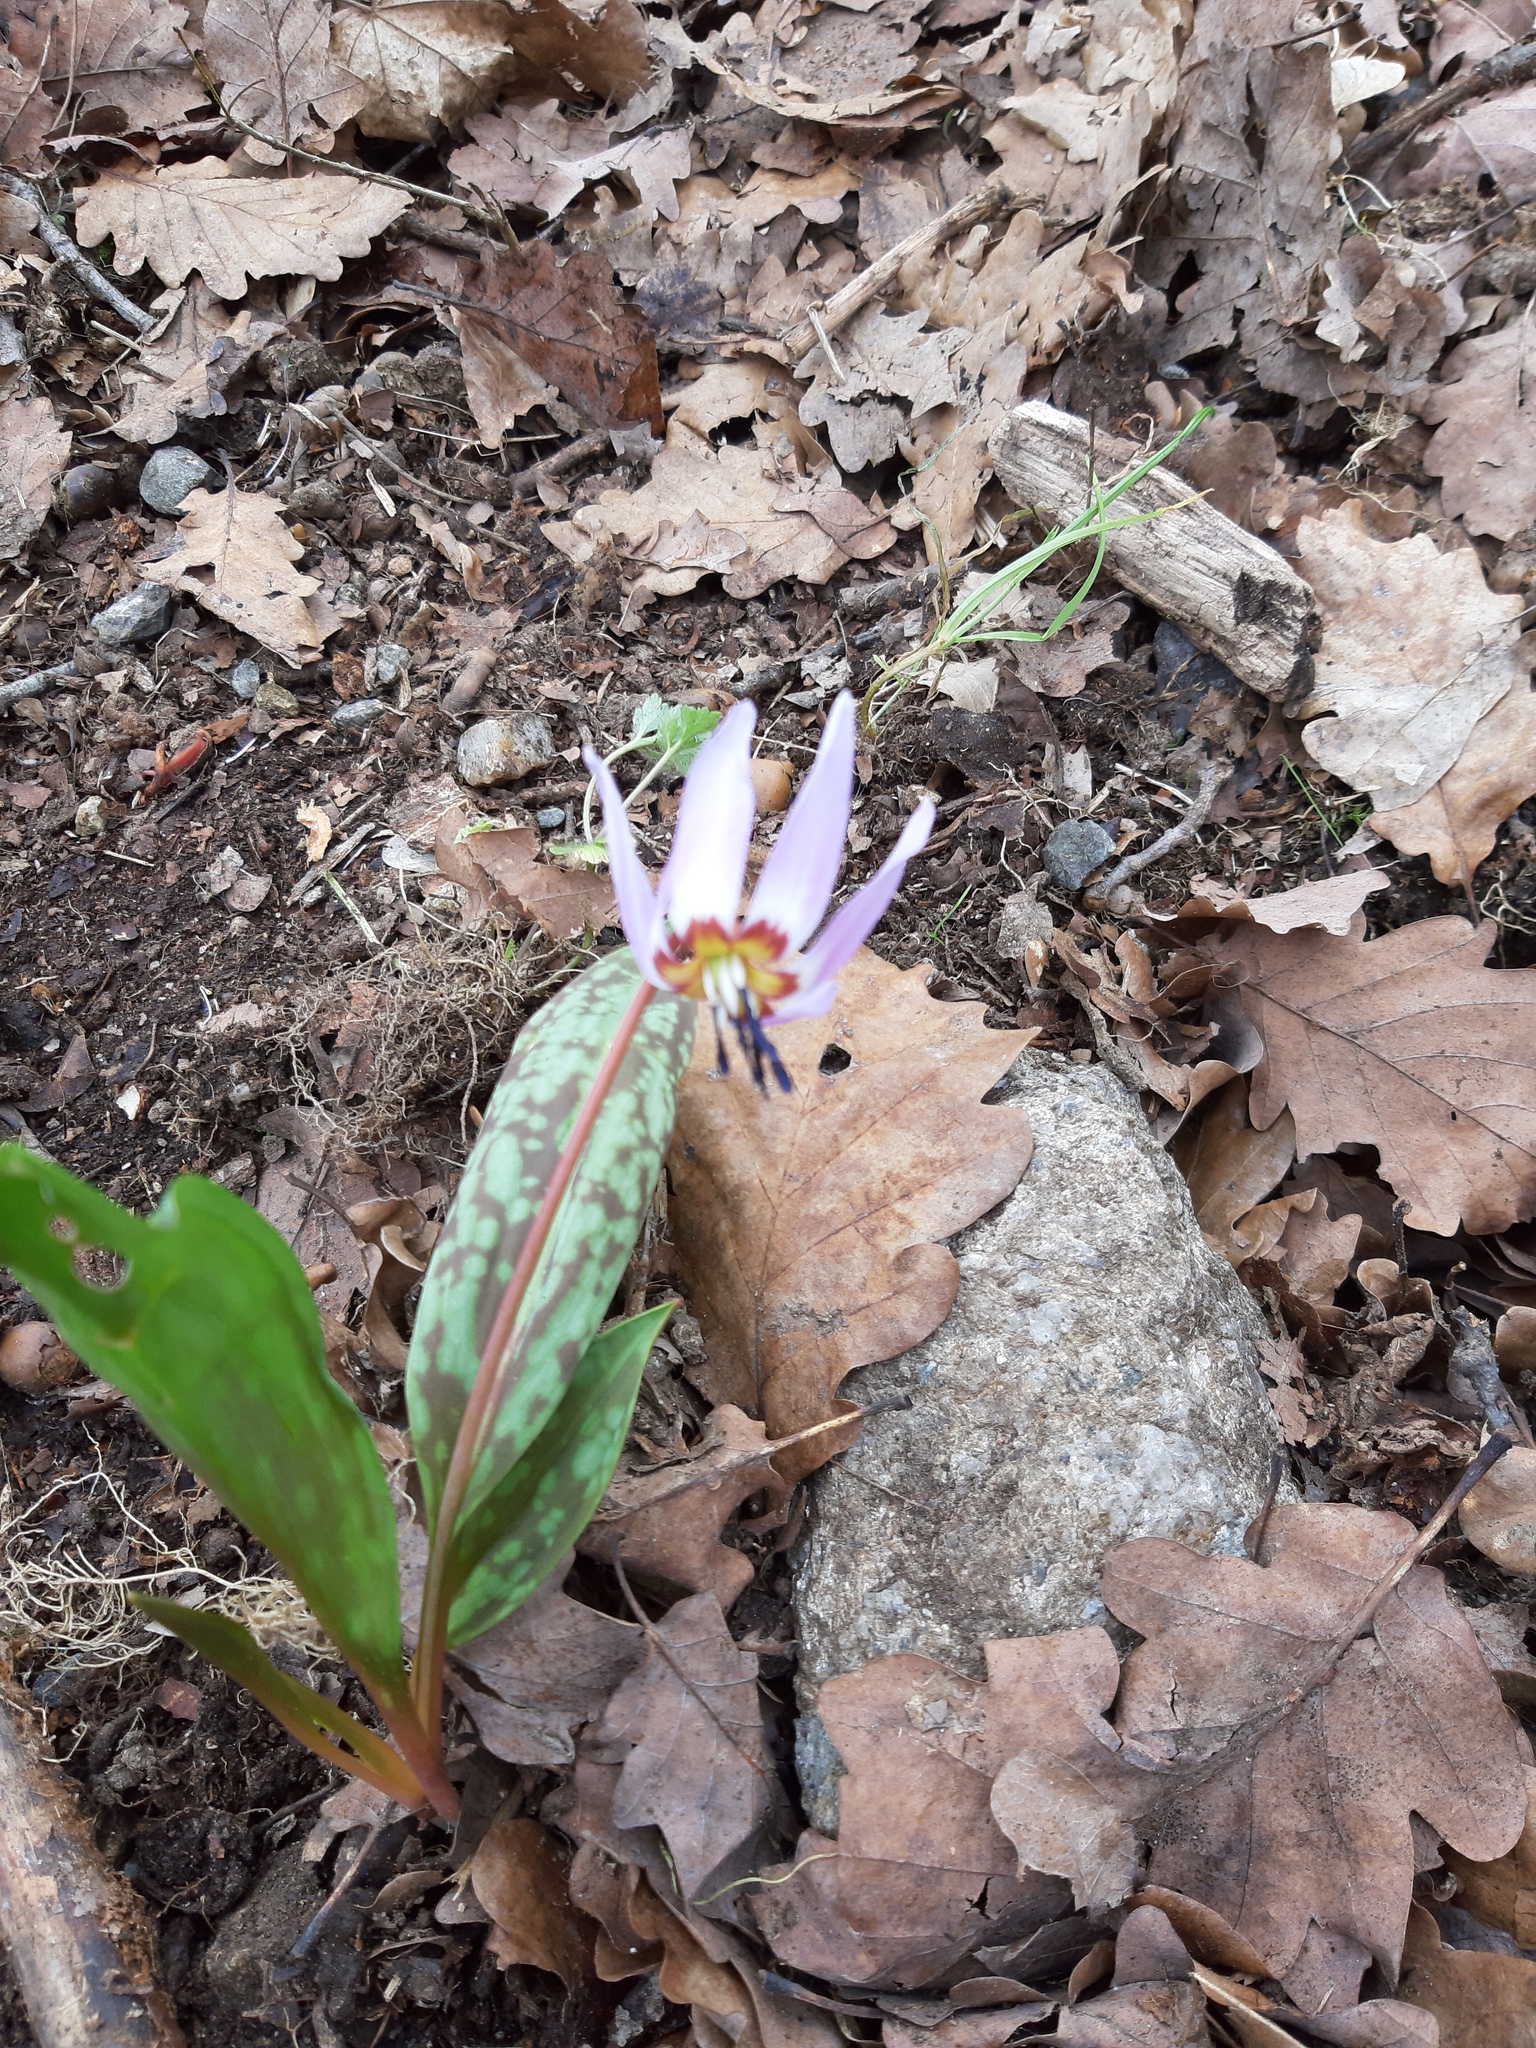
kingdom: Plantae
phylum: Tracheophyta
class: Liliopsida
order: Liliales
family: Liliaceae
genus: Erythronium
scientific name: Erythronium dens-canis
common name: Dog's-tooth-violet
